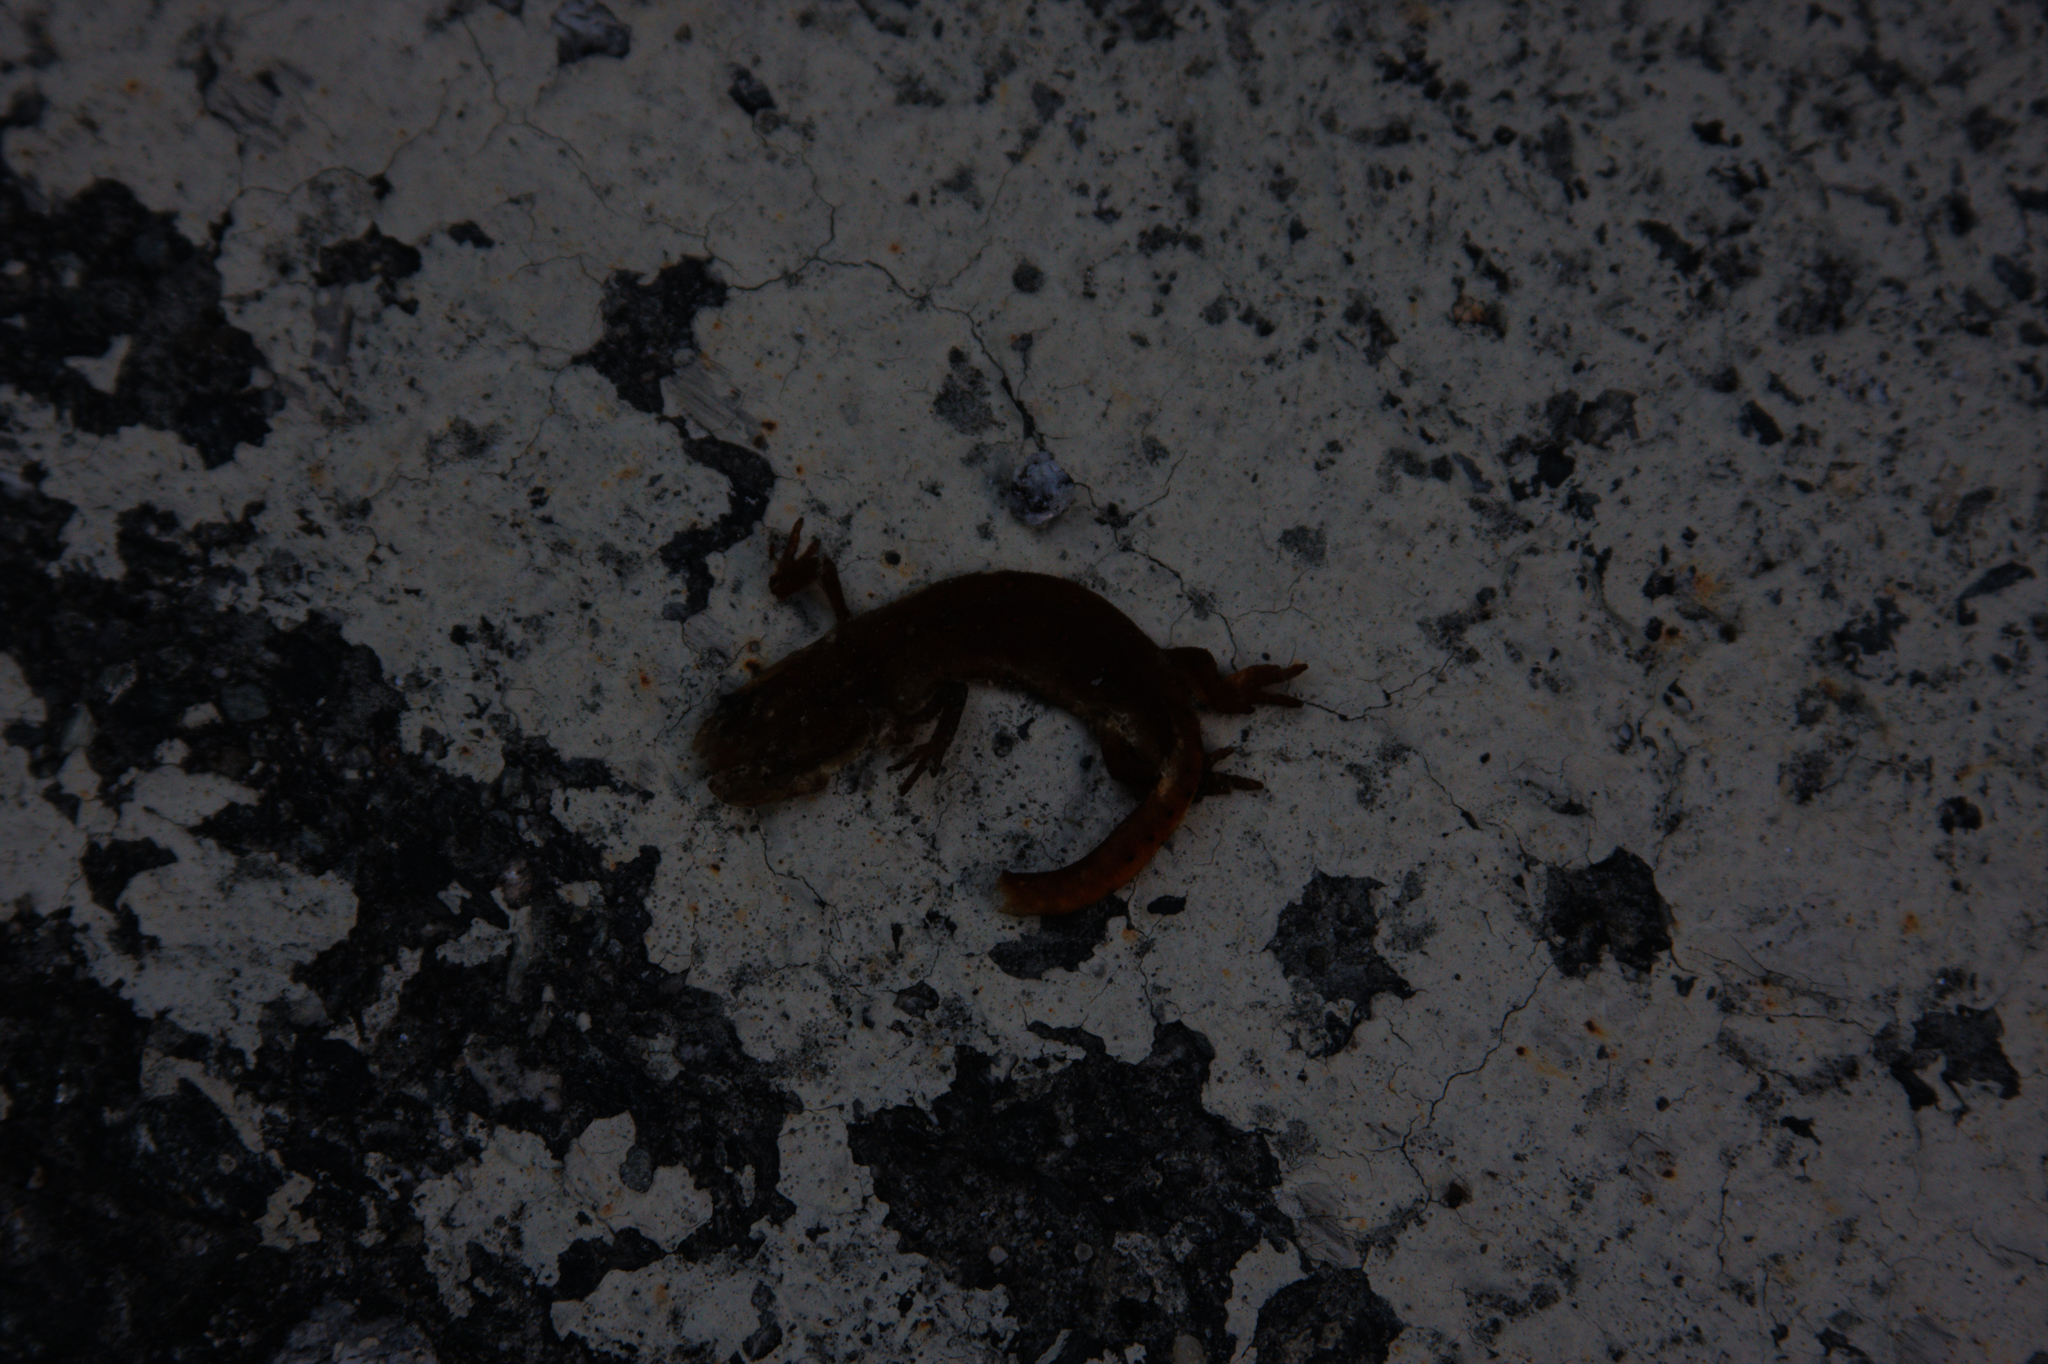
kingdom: Animalia
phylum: Chordata
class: Amphibia
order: Caudata
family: Salamandridae
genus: Notophthalmus
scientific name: Notophthalmus viridescens
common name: Eastern newt
